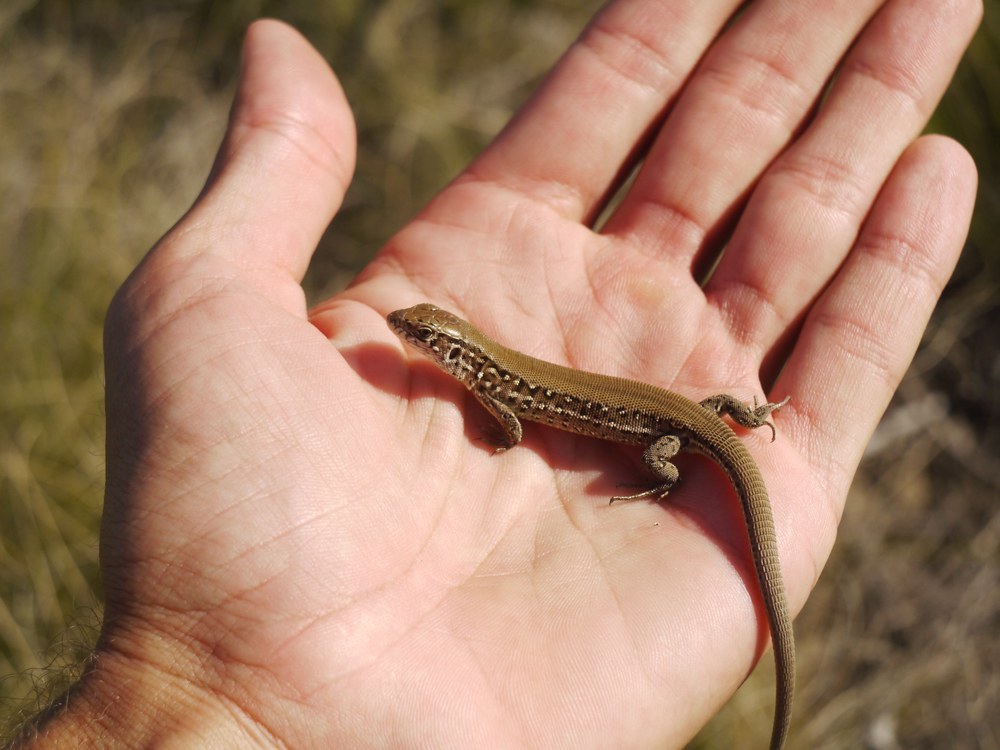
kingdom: Animalia
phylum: Chordata
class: Squamata
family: Lacertidae
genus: Lacerta
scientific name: Lacerta agilis
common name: Sand lizard
